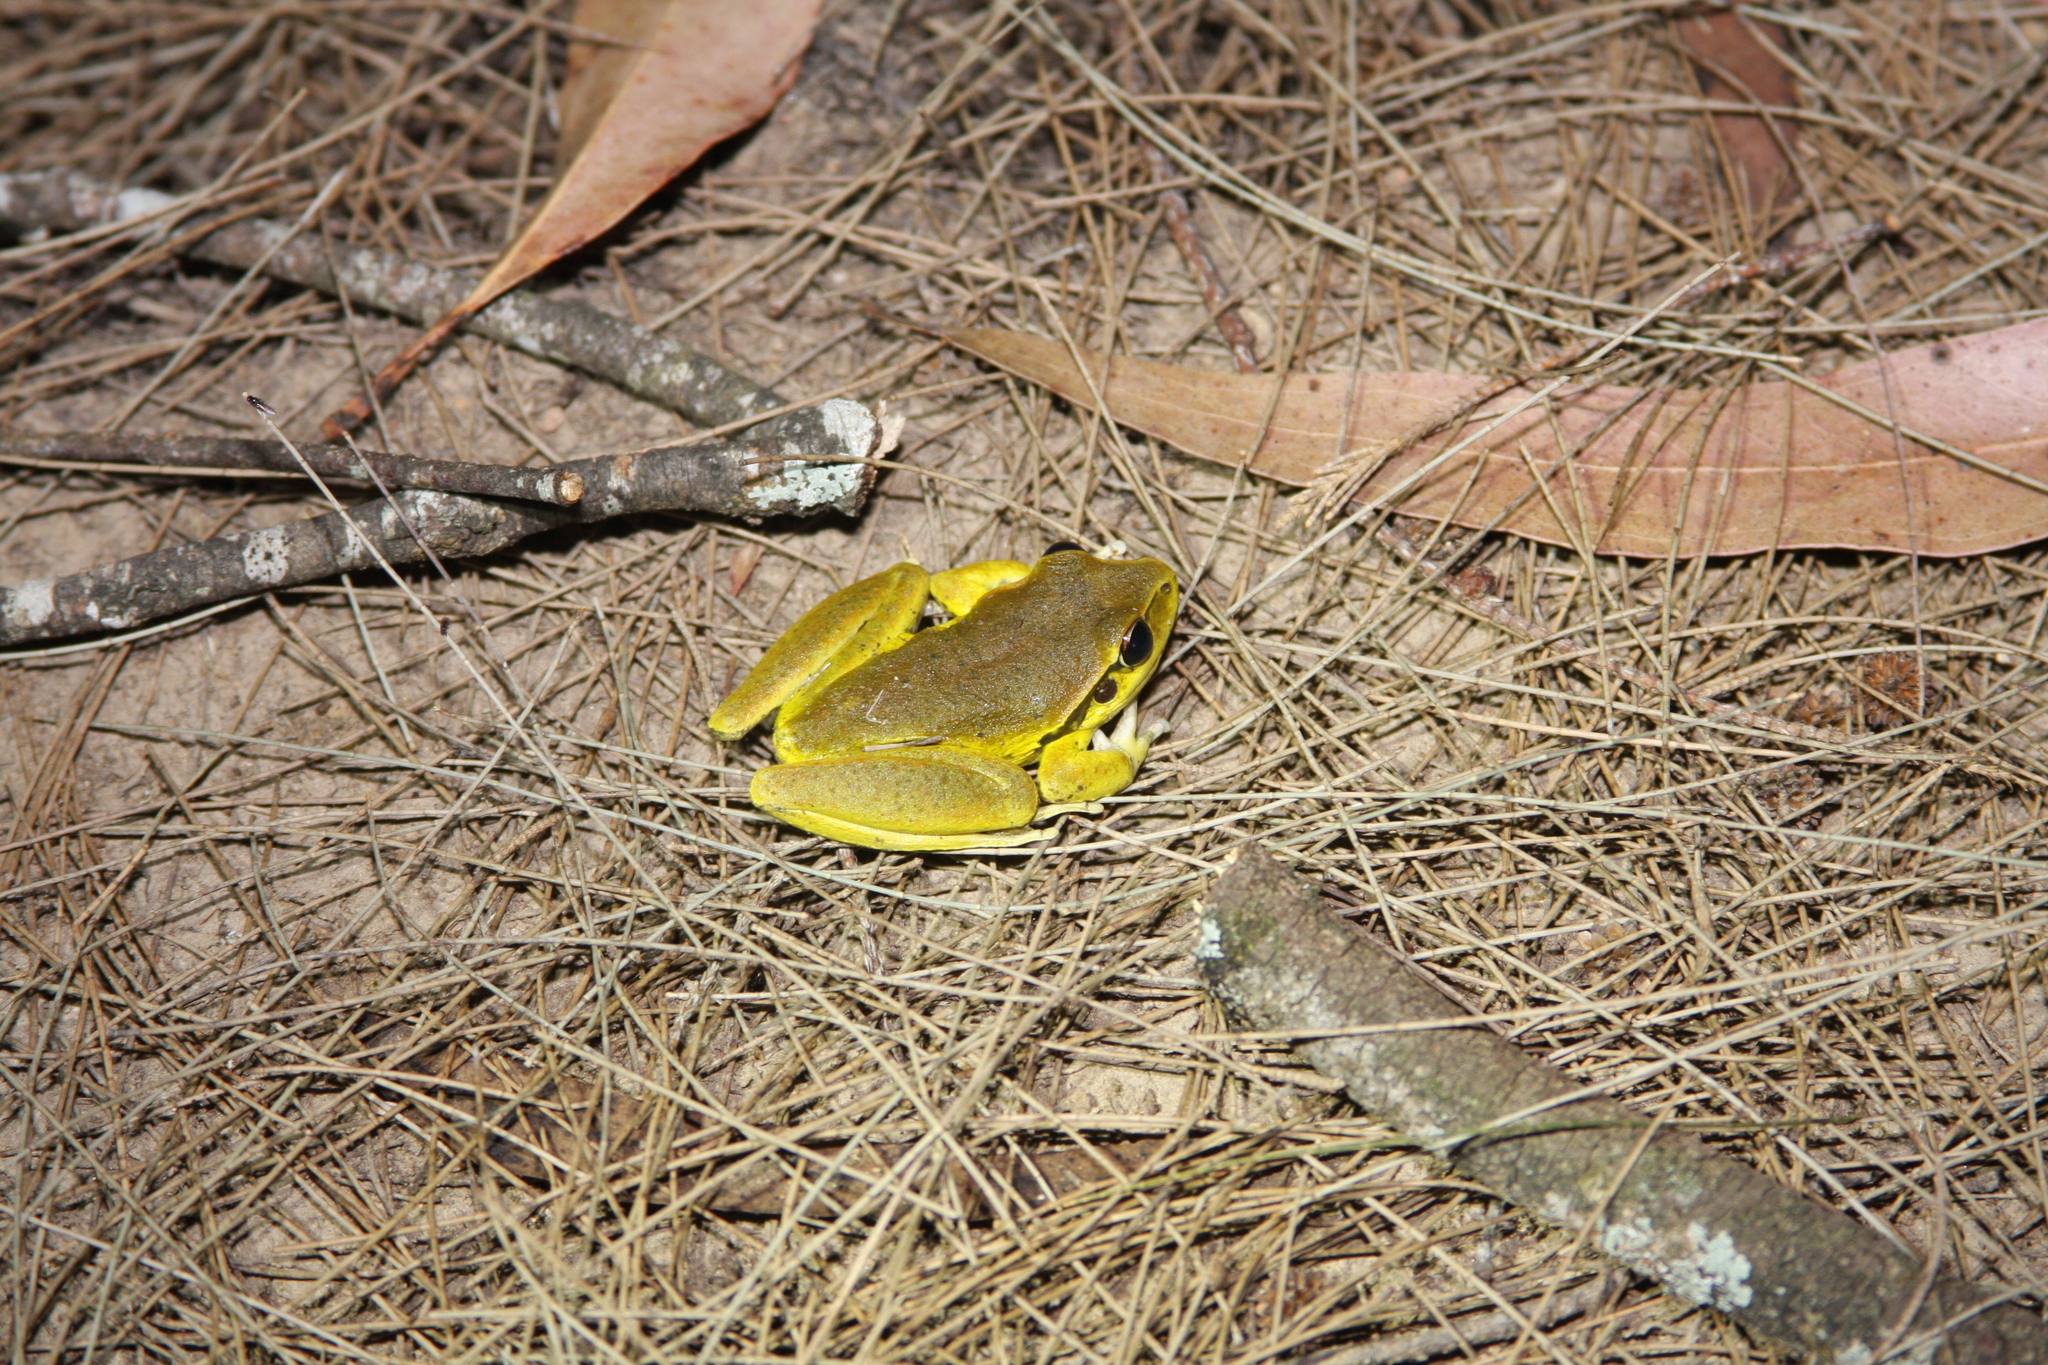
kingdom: Animalia
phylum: Chordata
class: Amphibia
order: Anura
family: Pelodryadidae
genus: Ranoidea
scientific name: Ranoidea lesueurii
